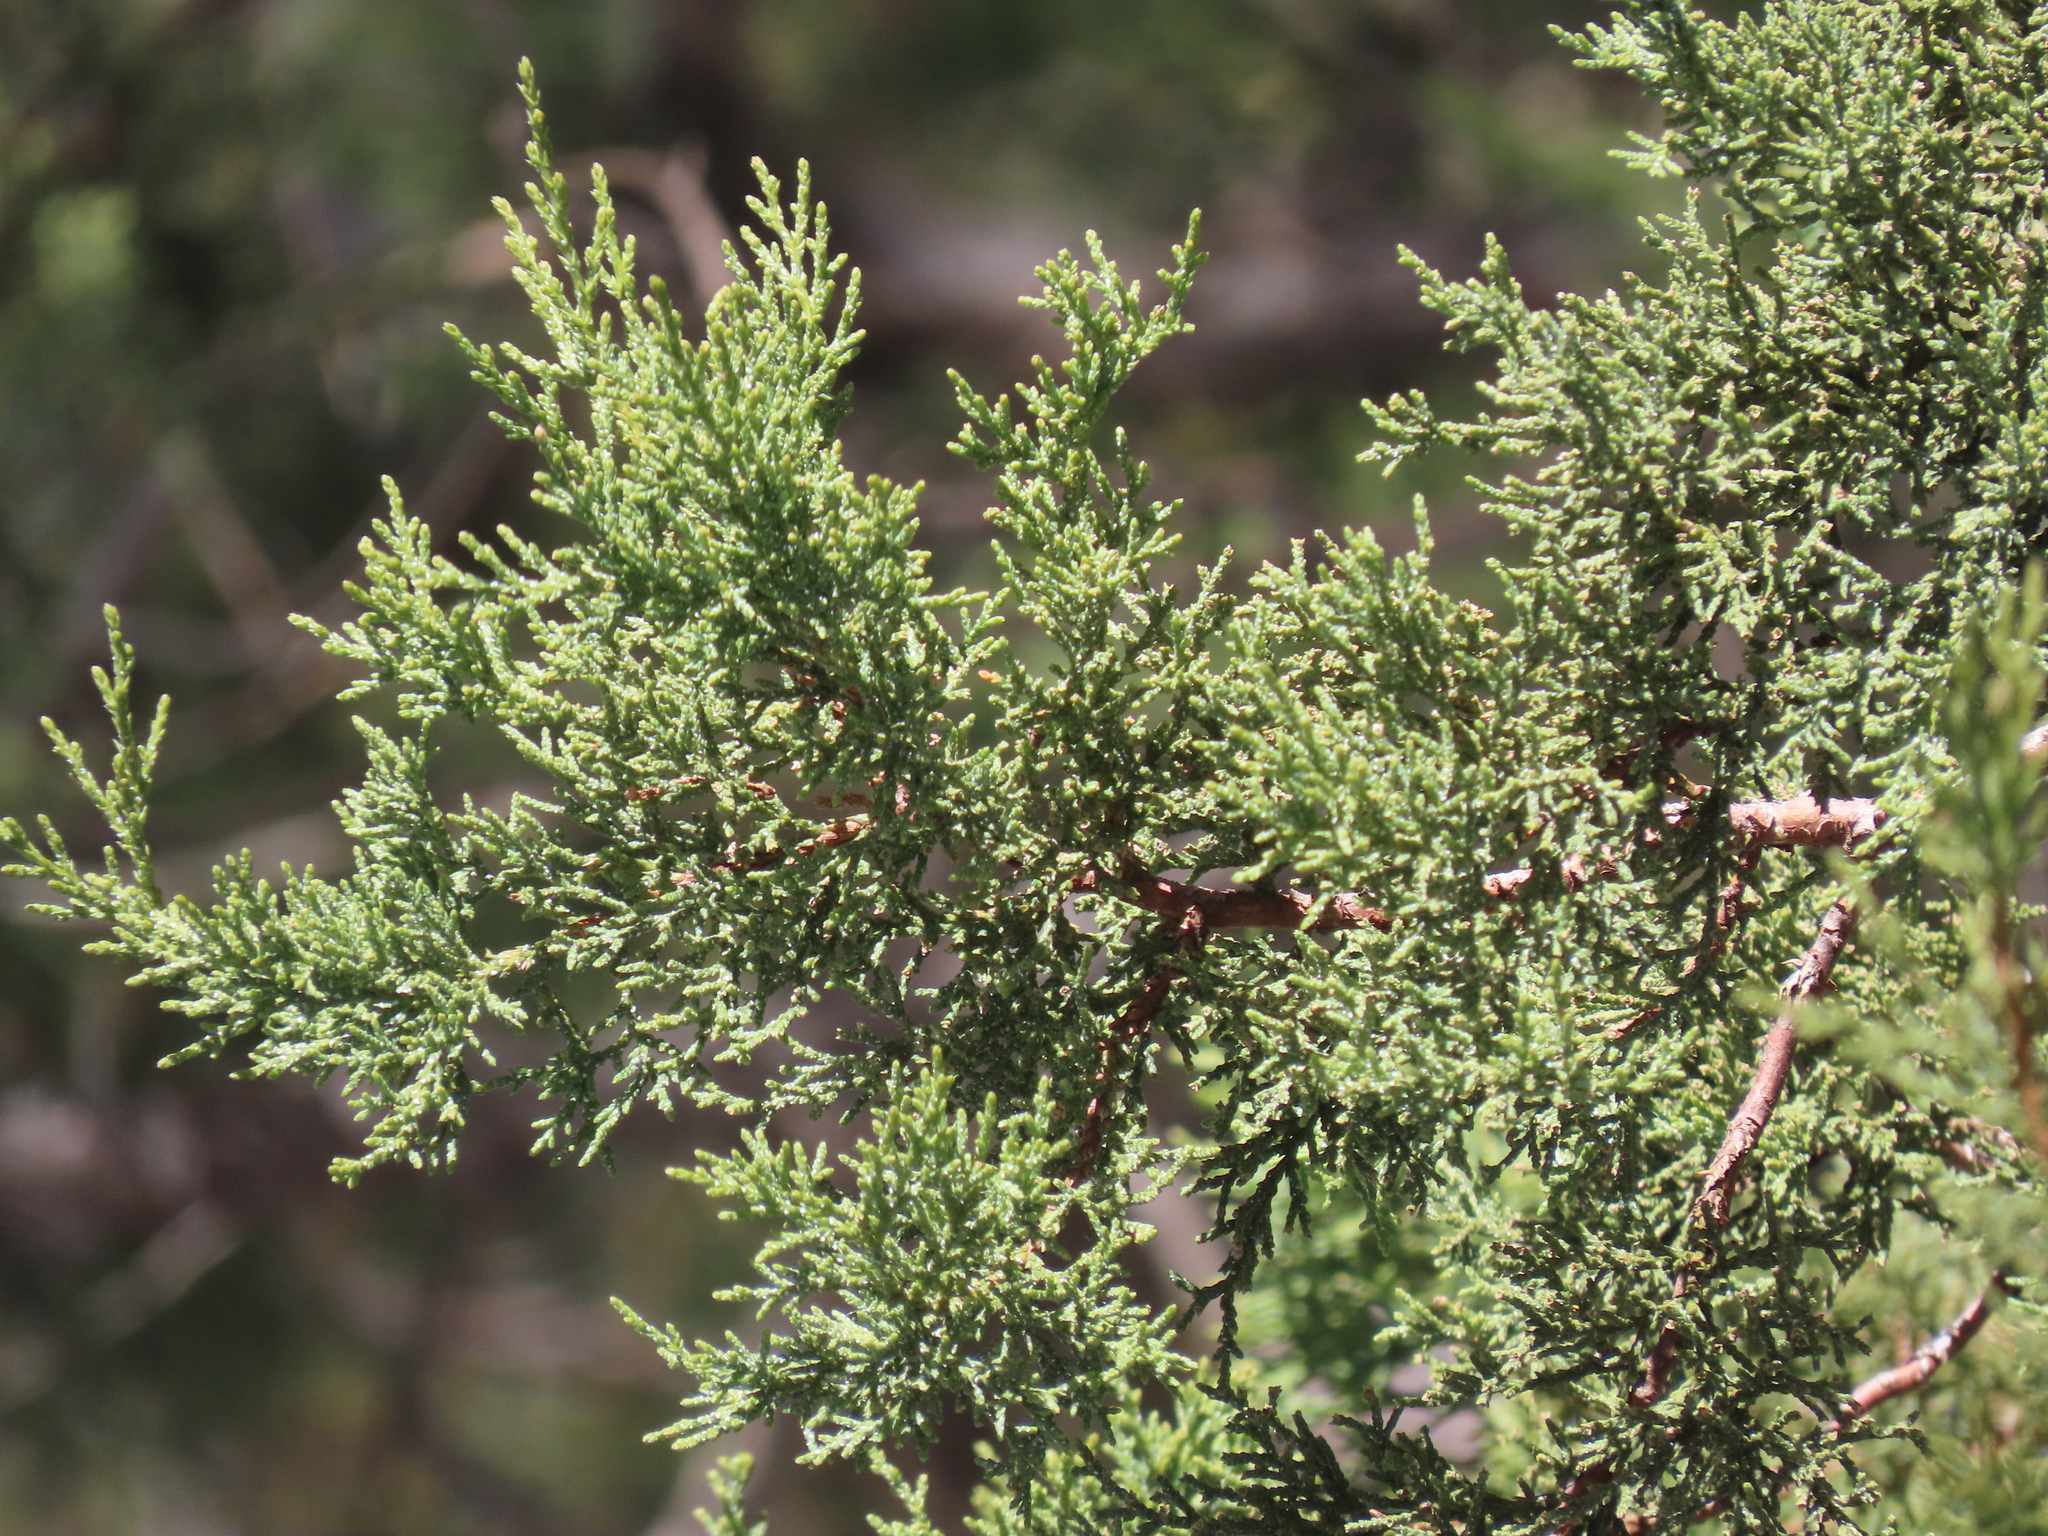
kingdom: Plantae
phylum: Tracheophyta
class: Pinopsida
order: Pinales
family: Cupressaceae
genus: Juniperus
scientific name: Juniperus deppeana
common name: Alligator juniper
